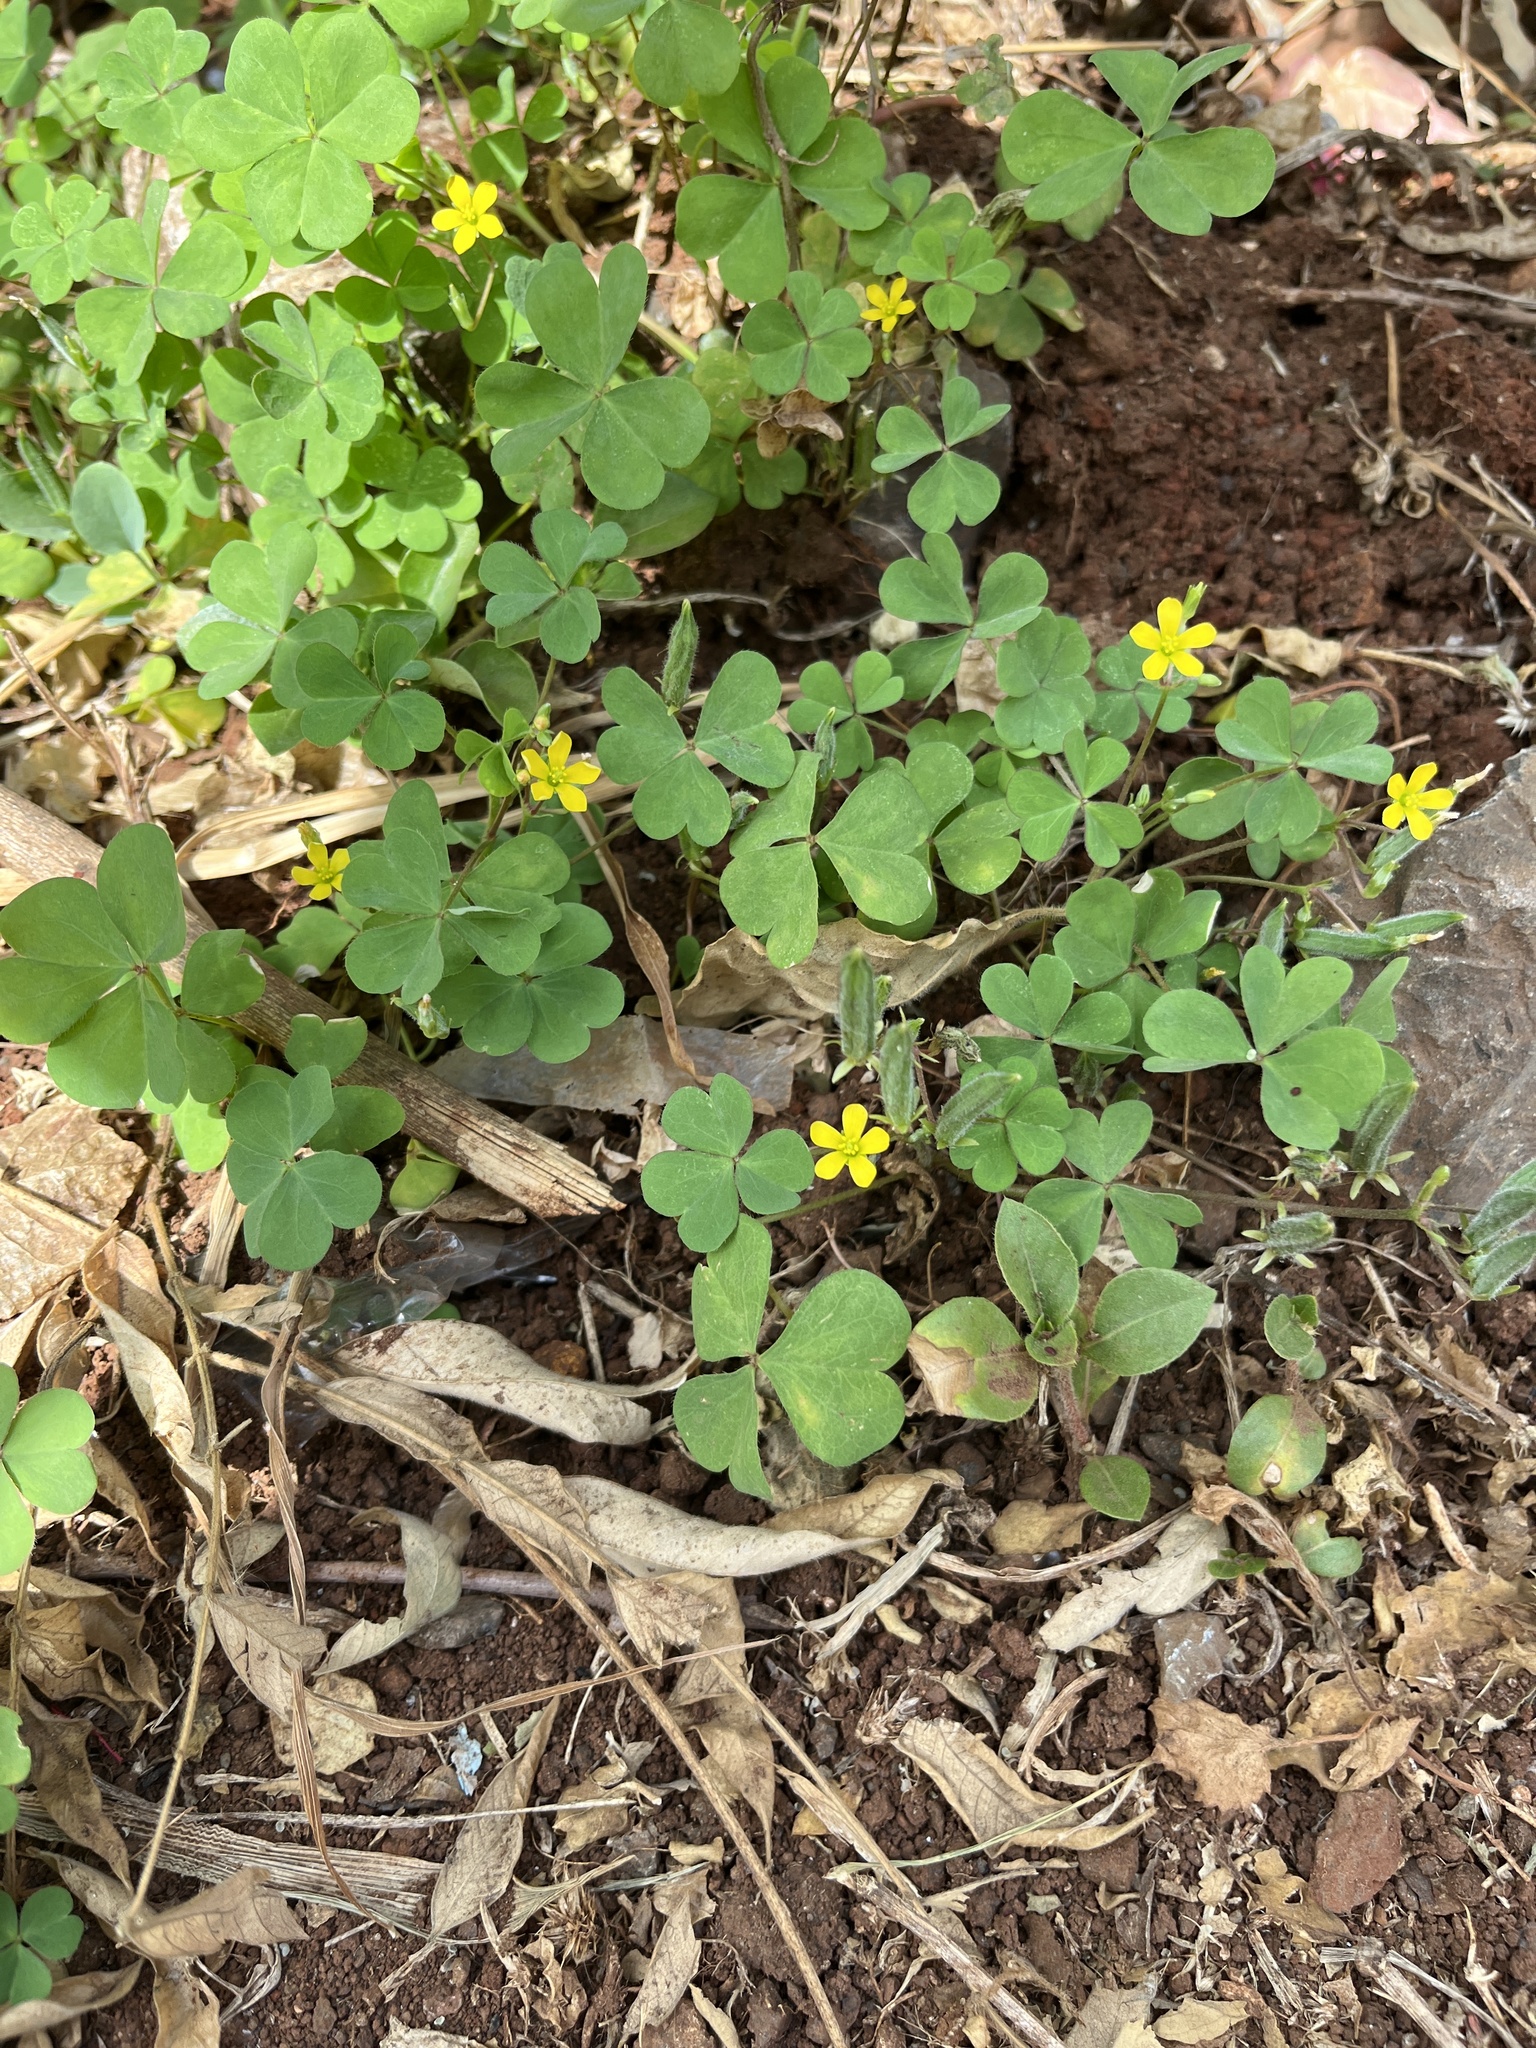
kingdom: Plantae
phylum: Tracheophyta
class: Magnoliopsida
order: Oxalidales
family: Oxalidaceae
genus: Oxalis
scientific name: Oxalis corniculata
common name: Procumbent yellow-sorrel
